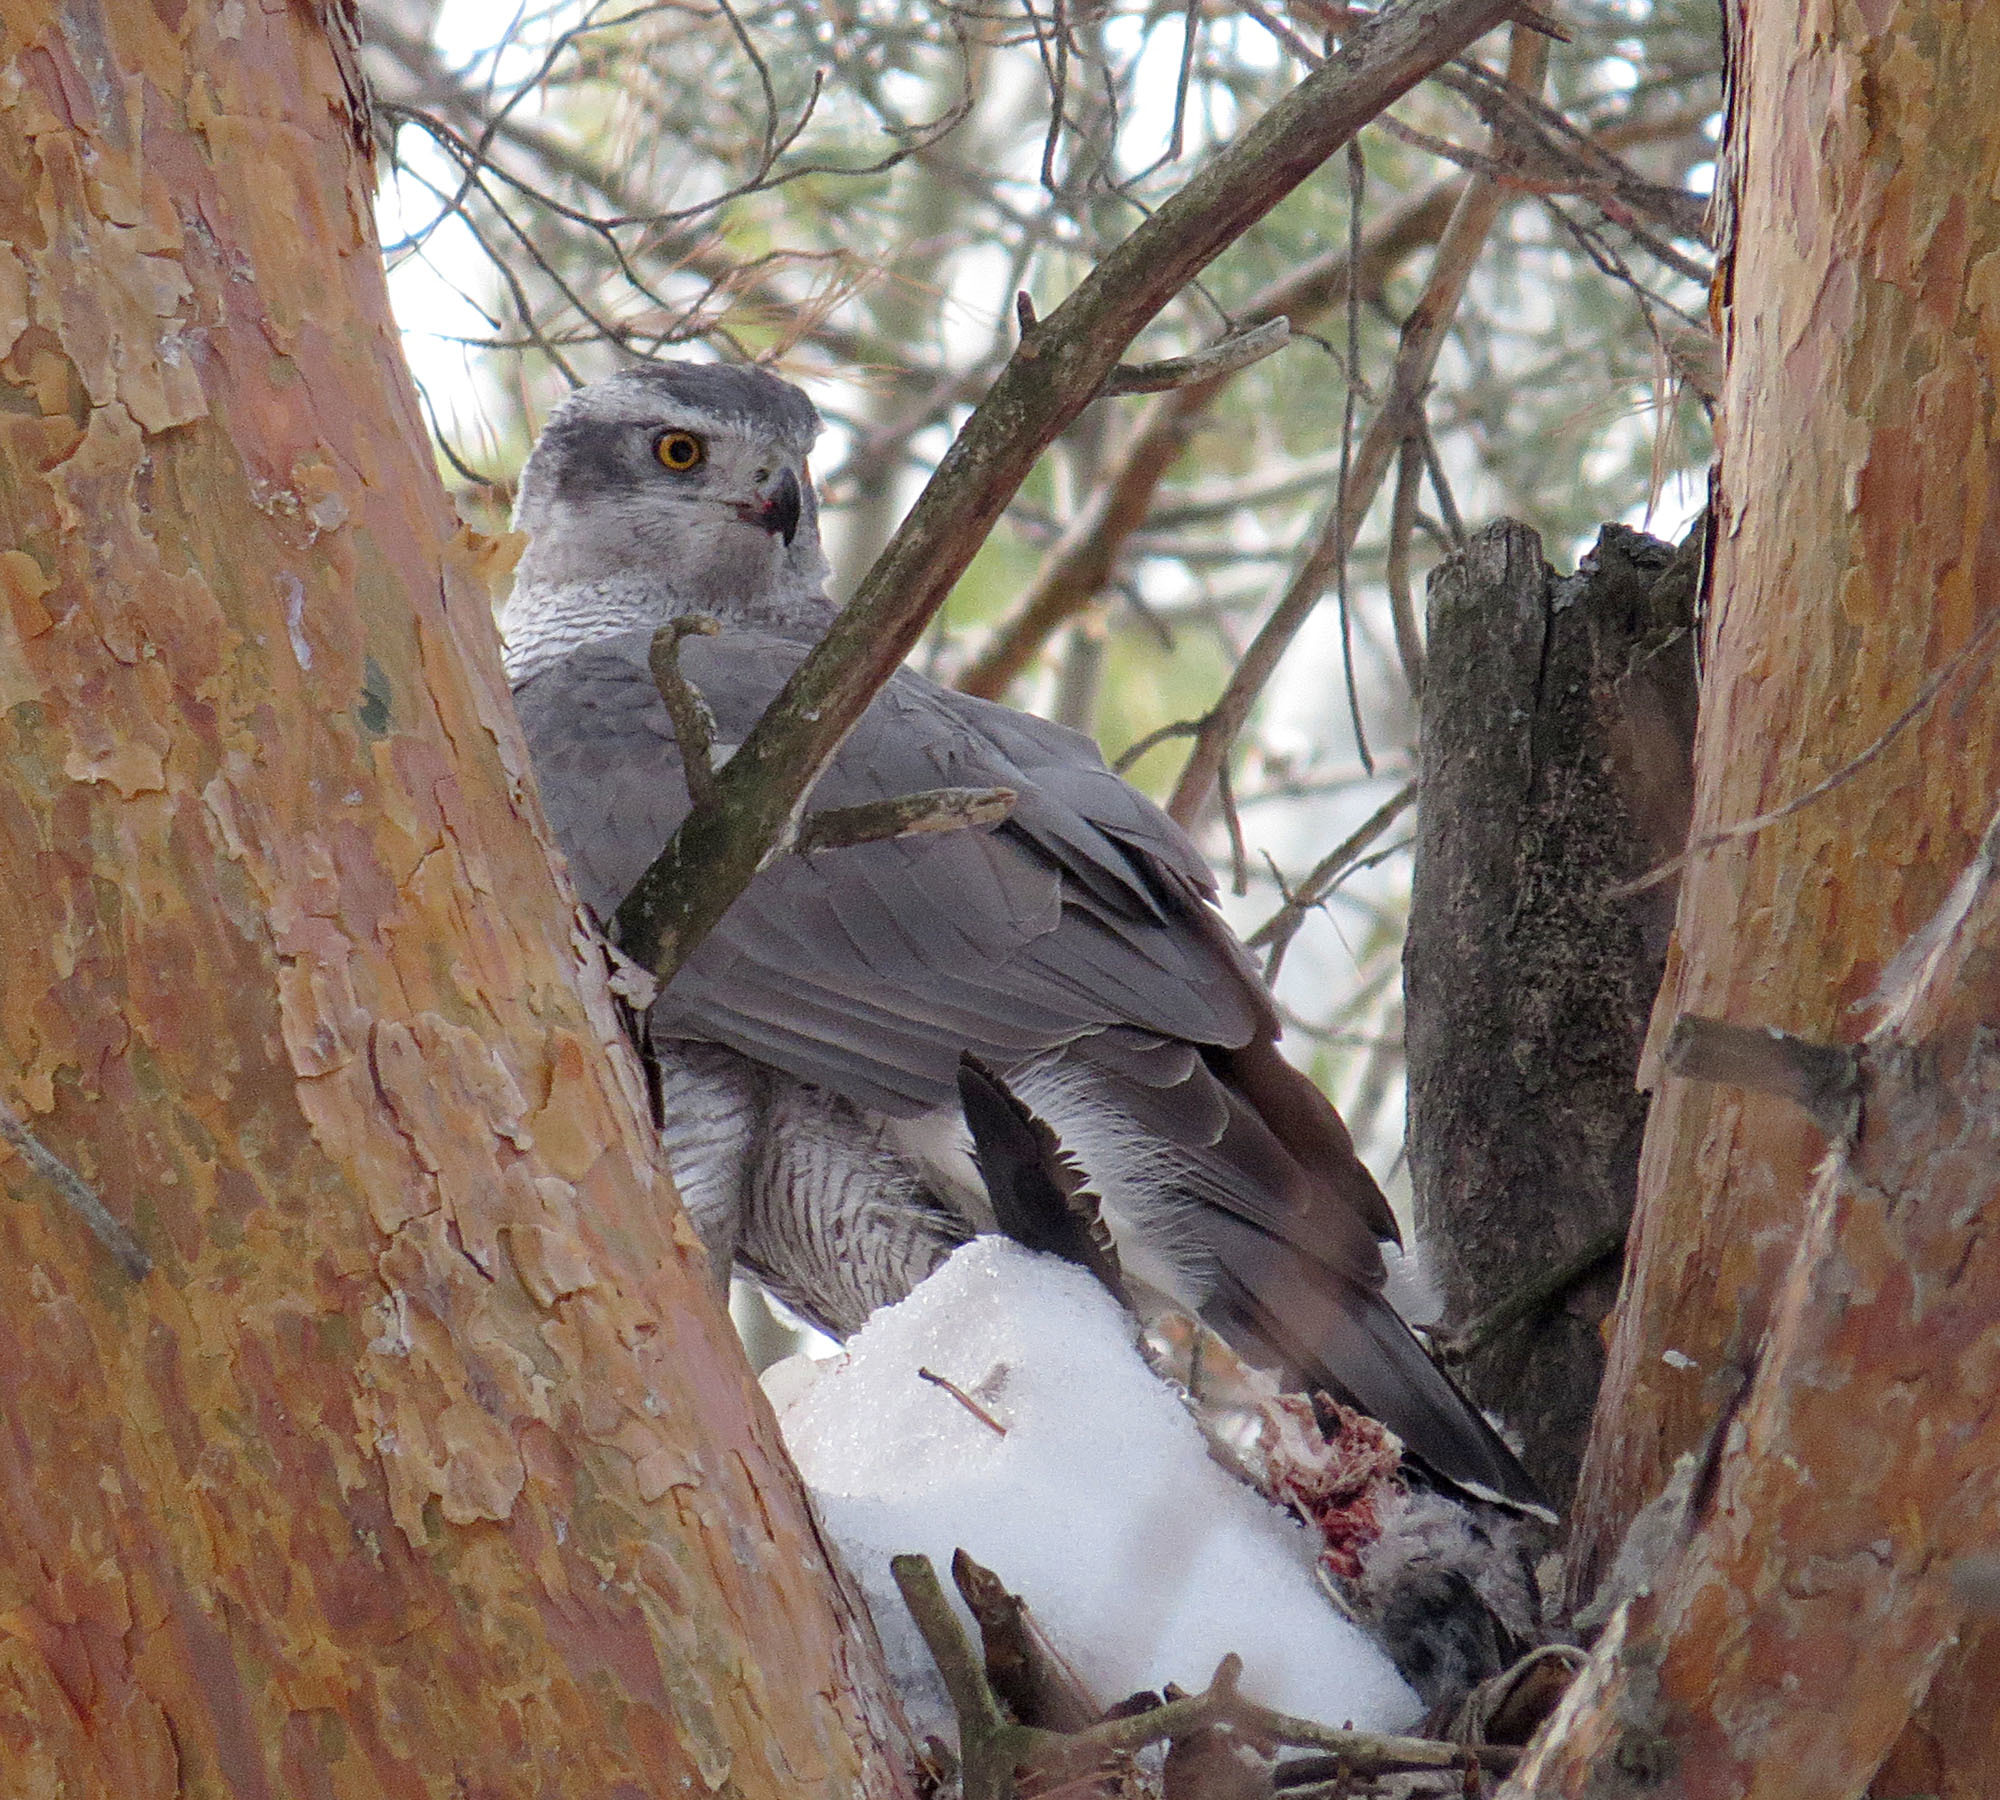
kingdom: Animalia
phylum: Chordata
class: Aves
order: Accipitriformes
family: Accipitridae
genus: Accipiter
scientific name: Accipiter gentilis
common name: Northern goshawk
